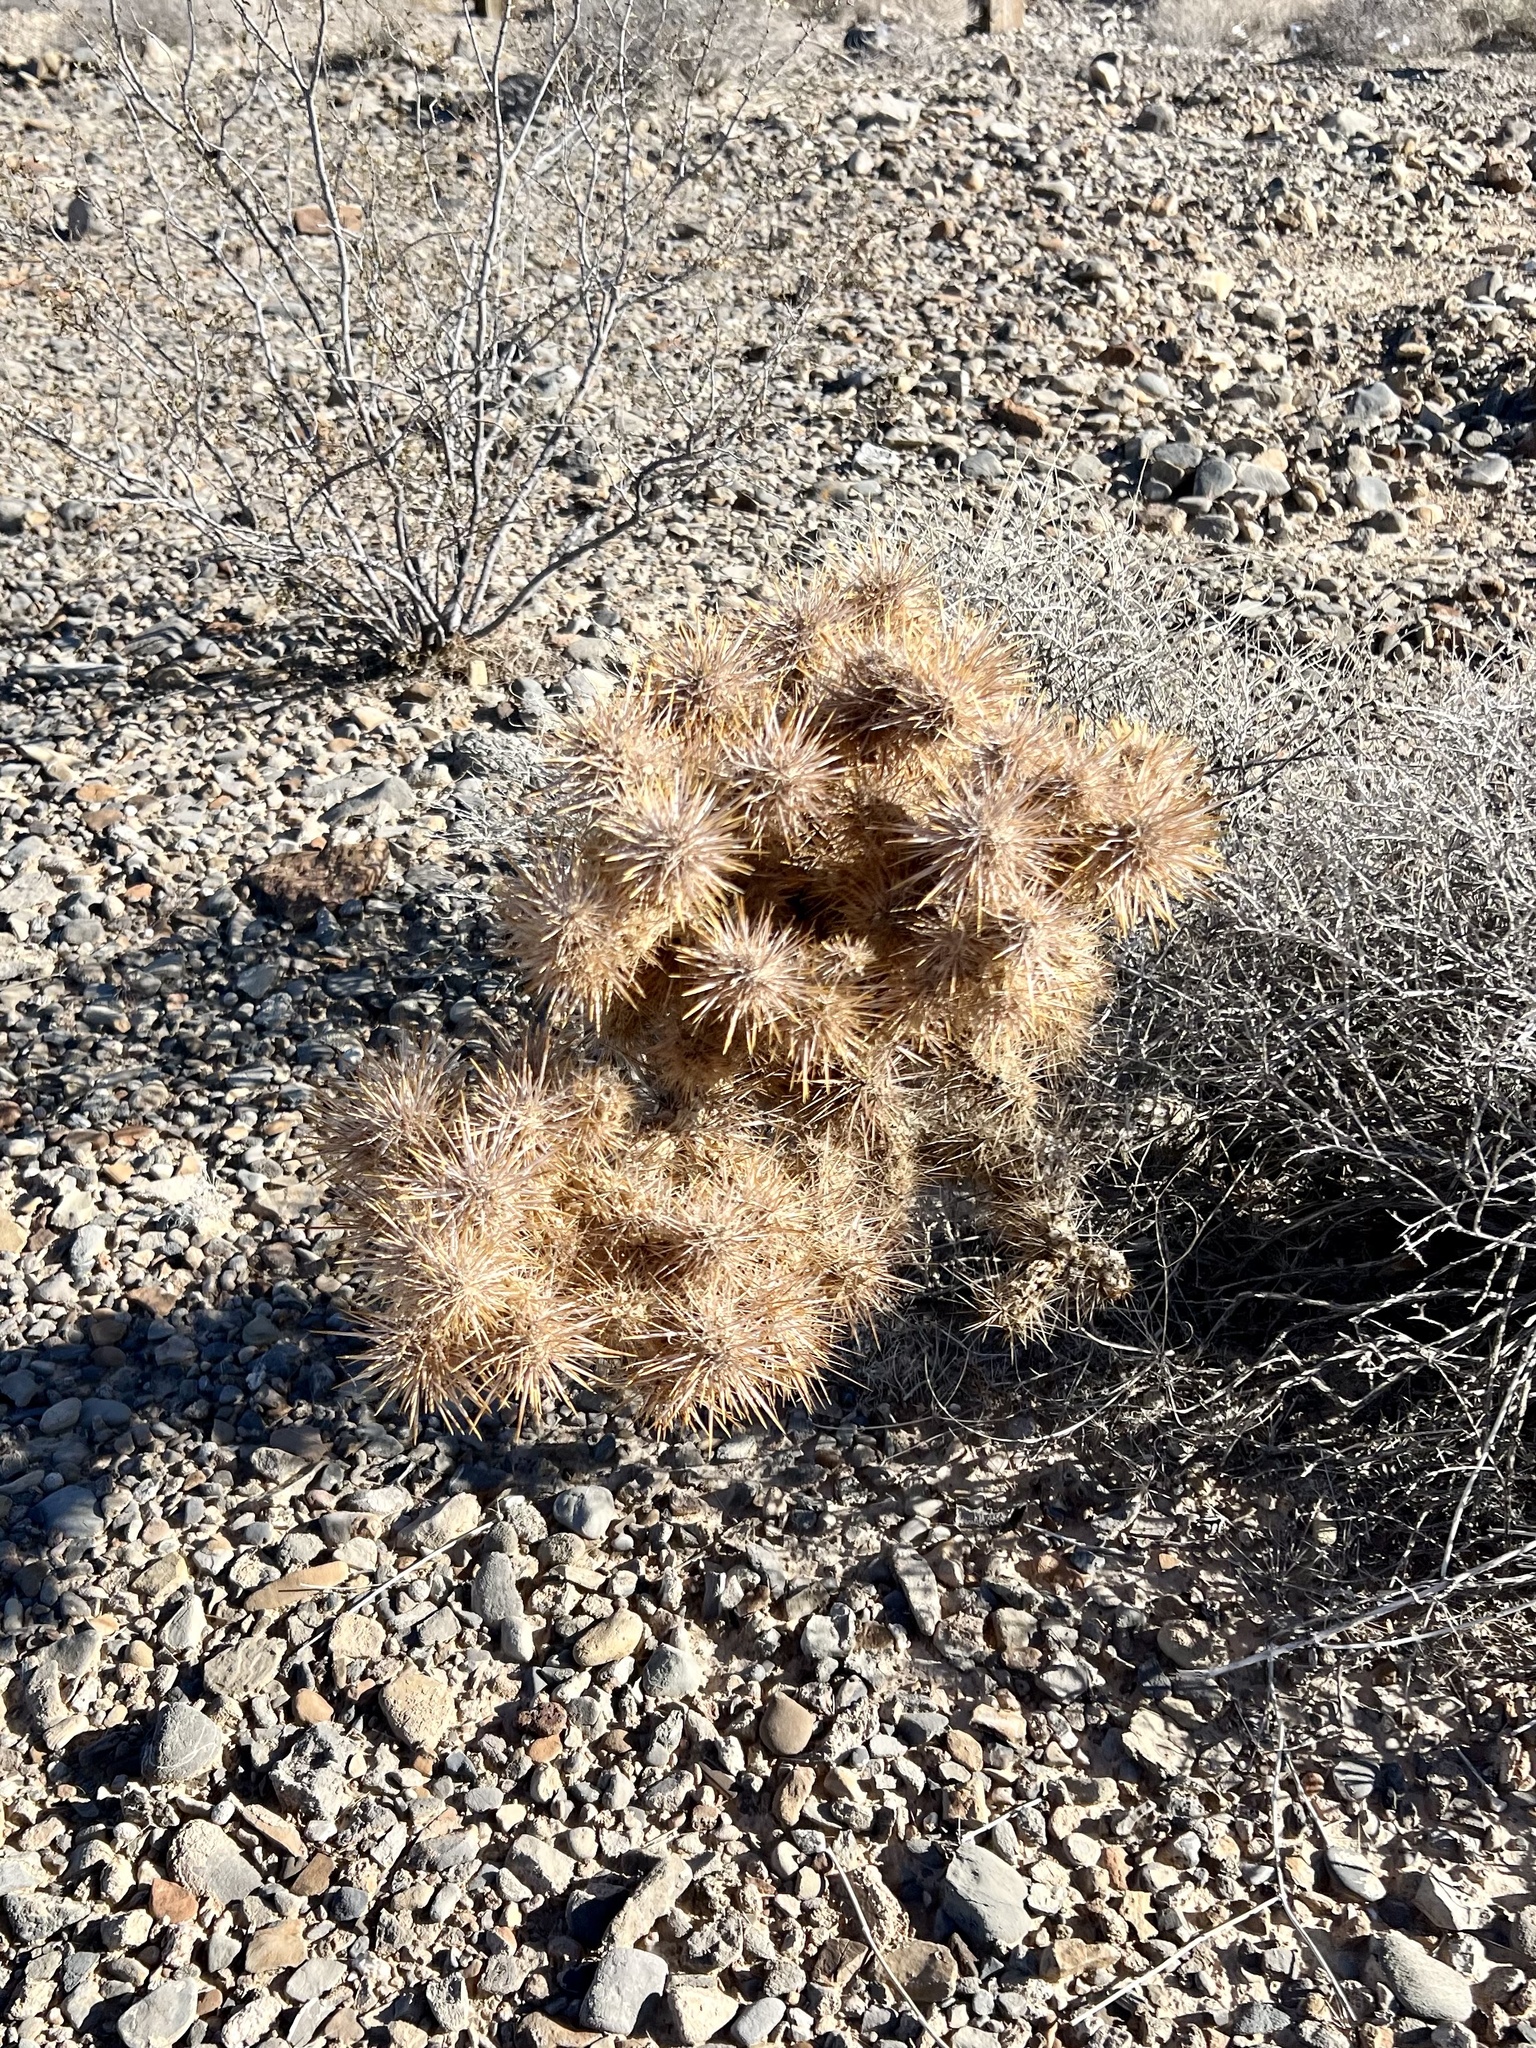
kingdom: Plantae
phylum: Tracheophyta
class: Magnoliopsida
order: Caryophyllales
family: Cactaceae
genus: Cylindropuntia
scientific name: Cylindropuntia echinocarpa
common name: Ground cholla
